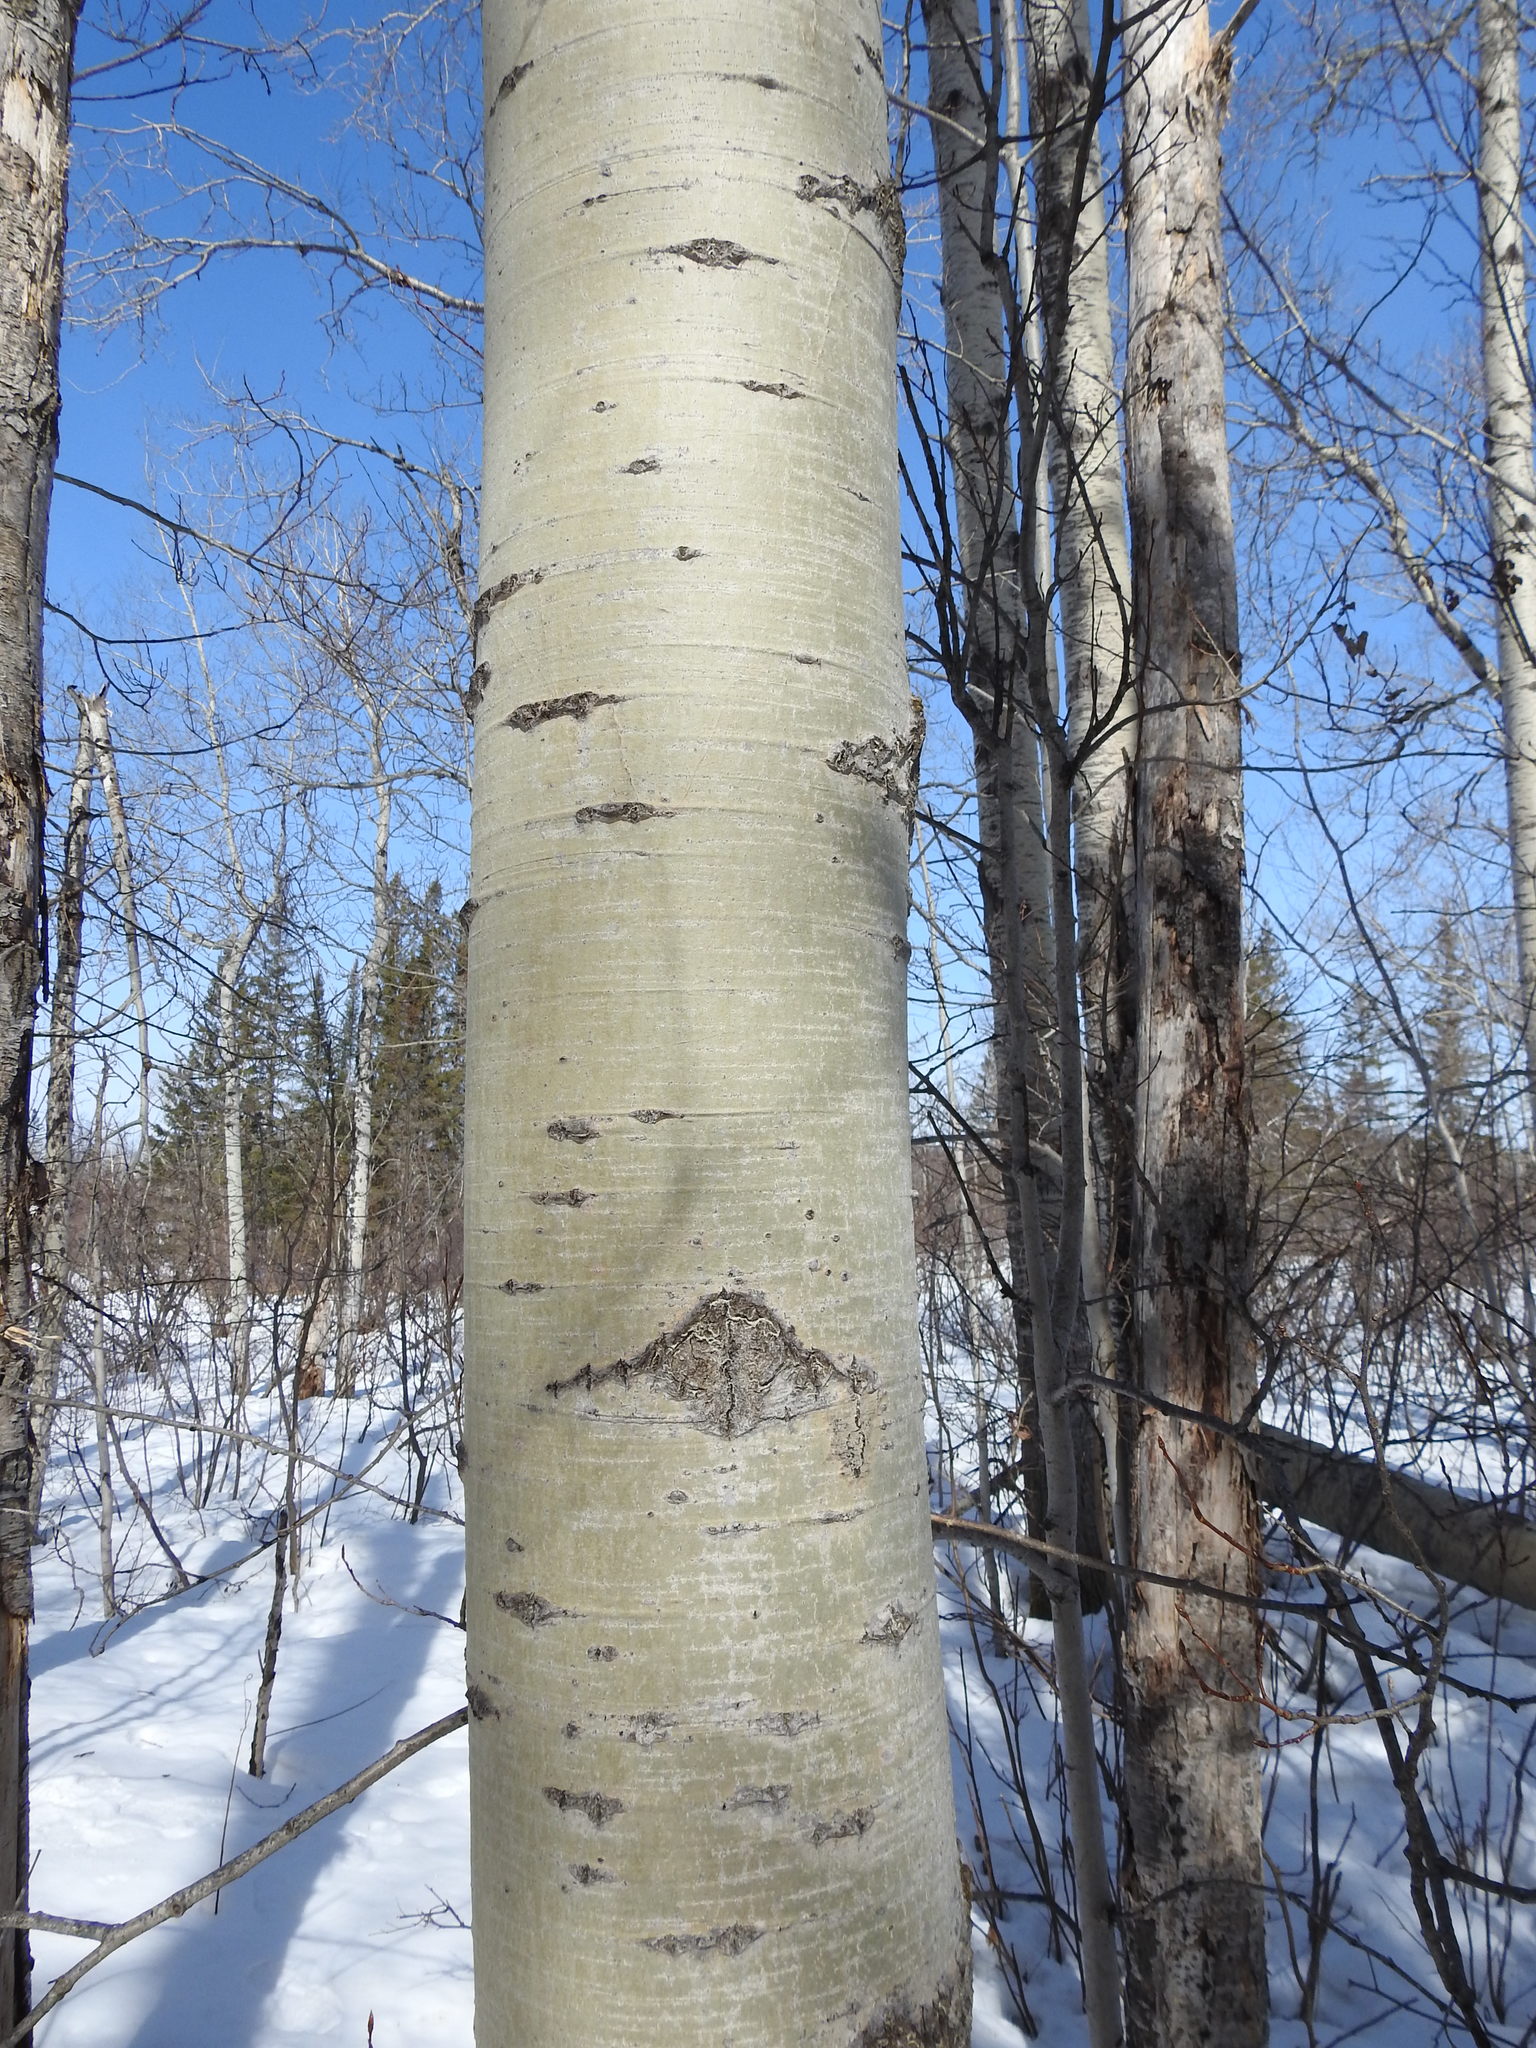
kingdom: Plantae
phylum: Tracheophyta
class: Magnoliopsida
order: Malpighiales
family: Salicaceae
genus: Populus
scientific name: Populus tremuloides
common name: Quaking aspen
